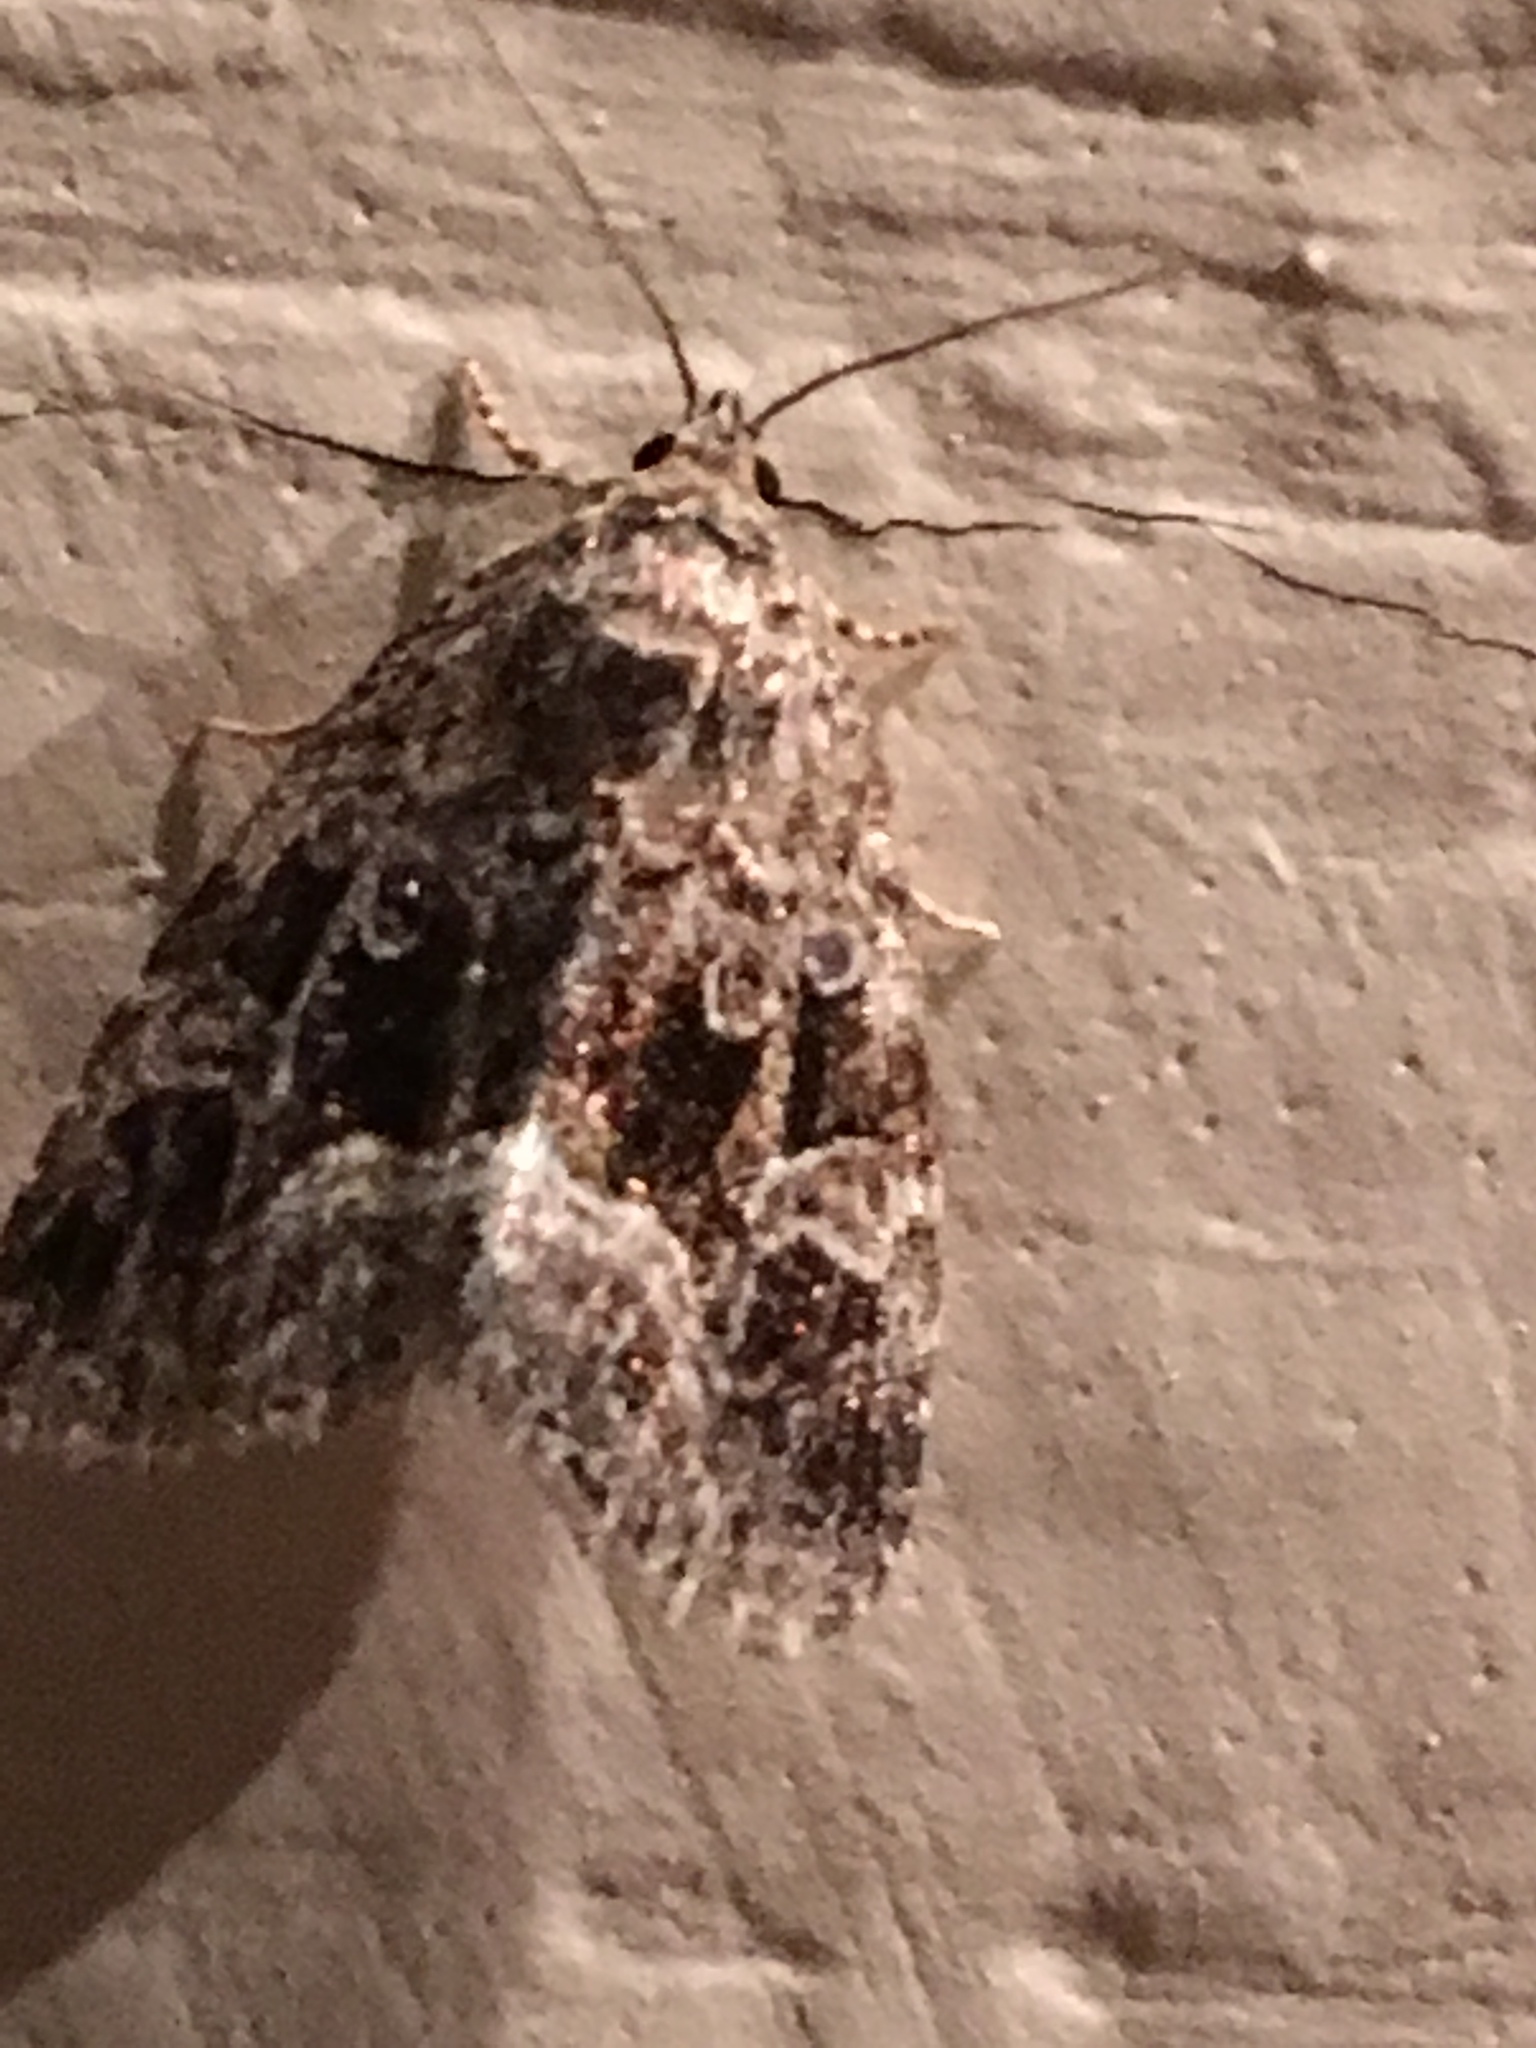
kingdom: Animalia
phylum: Arthropoda
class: Insecta
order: Lepidoptera
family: Noctuidae
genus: Protodeltote
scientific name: Protodeltote muscosula
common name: Large mossy glyph
